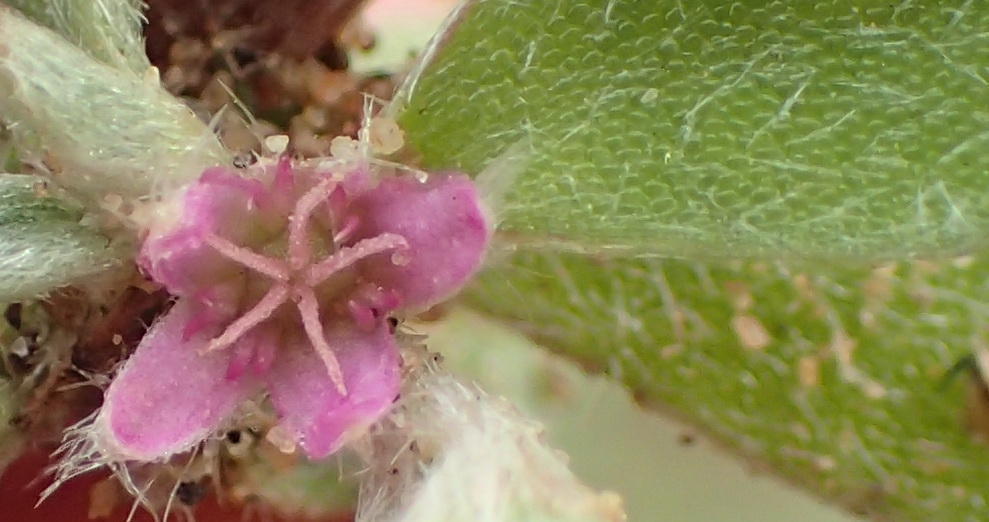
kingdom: Plantae
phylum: Tracheophyta
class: Magnoliopsida
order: Caryophyllales
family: Aizoaceae
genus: Aizoon
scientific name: Aizoon portulacaceum
